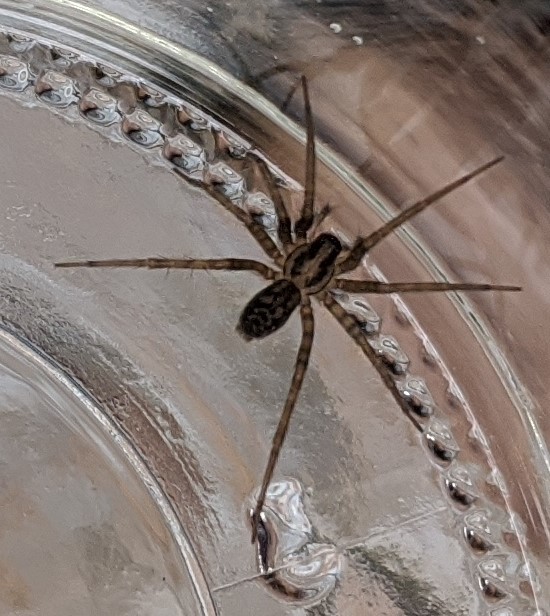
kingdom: Animalia
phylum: Arthropoda
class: Arachnida
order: Araneae
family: Agelenidae
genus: Tegenaria
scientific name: Tegenaria domestica
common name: Barn funnel weaver
